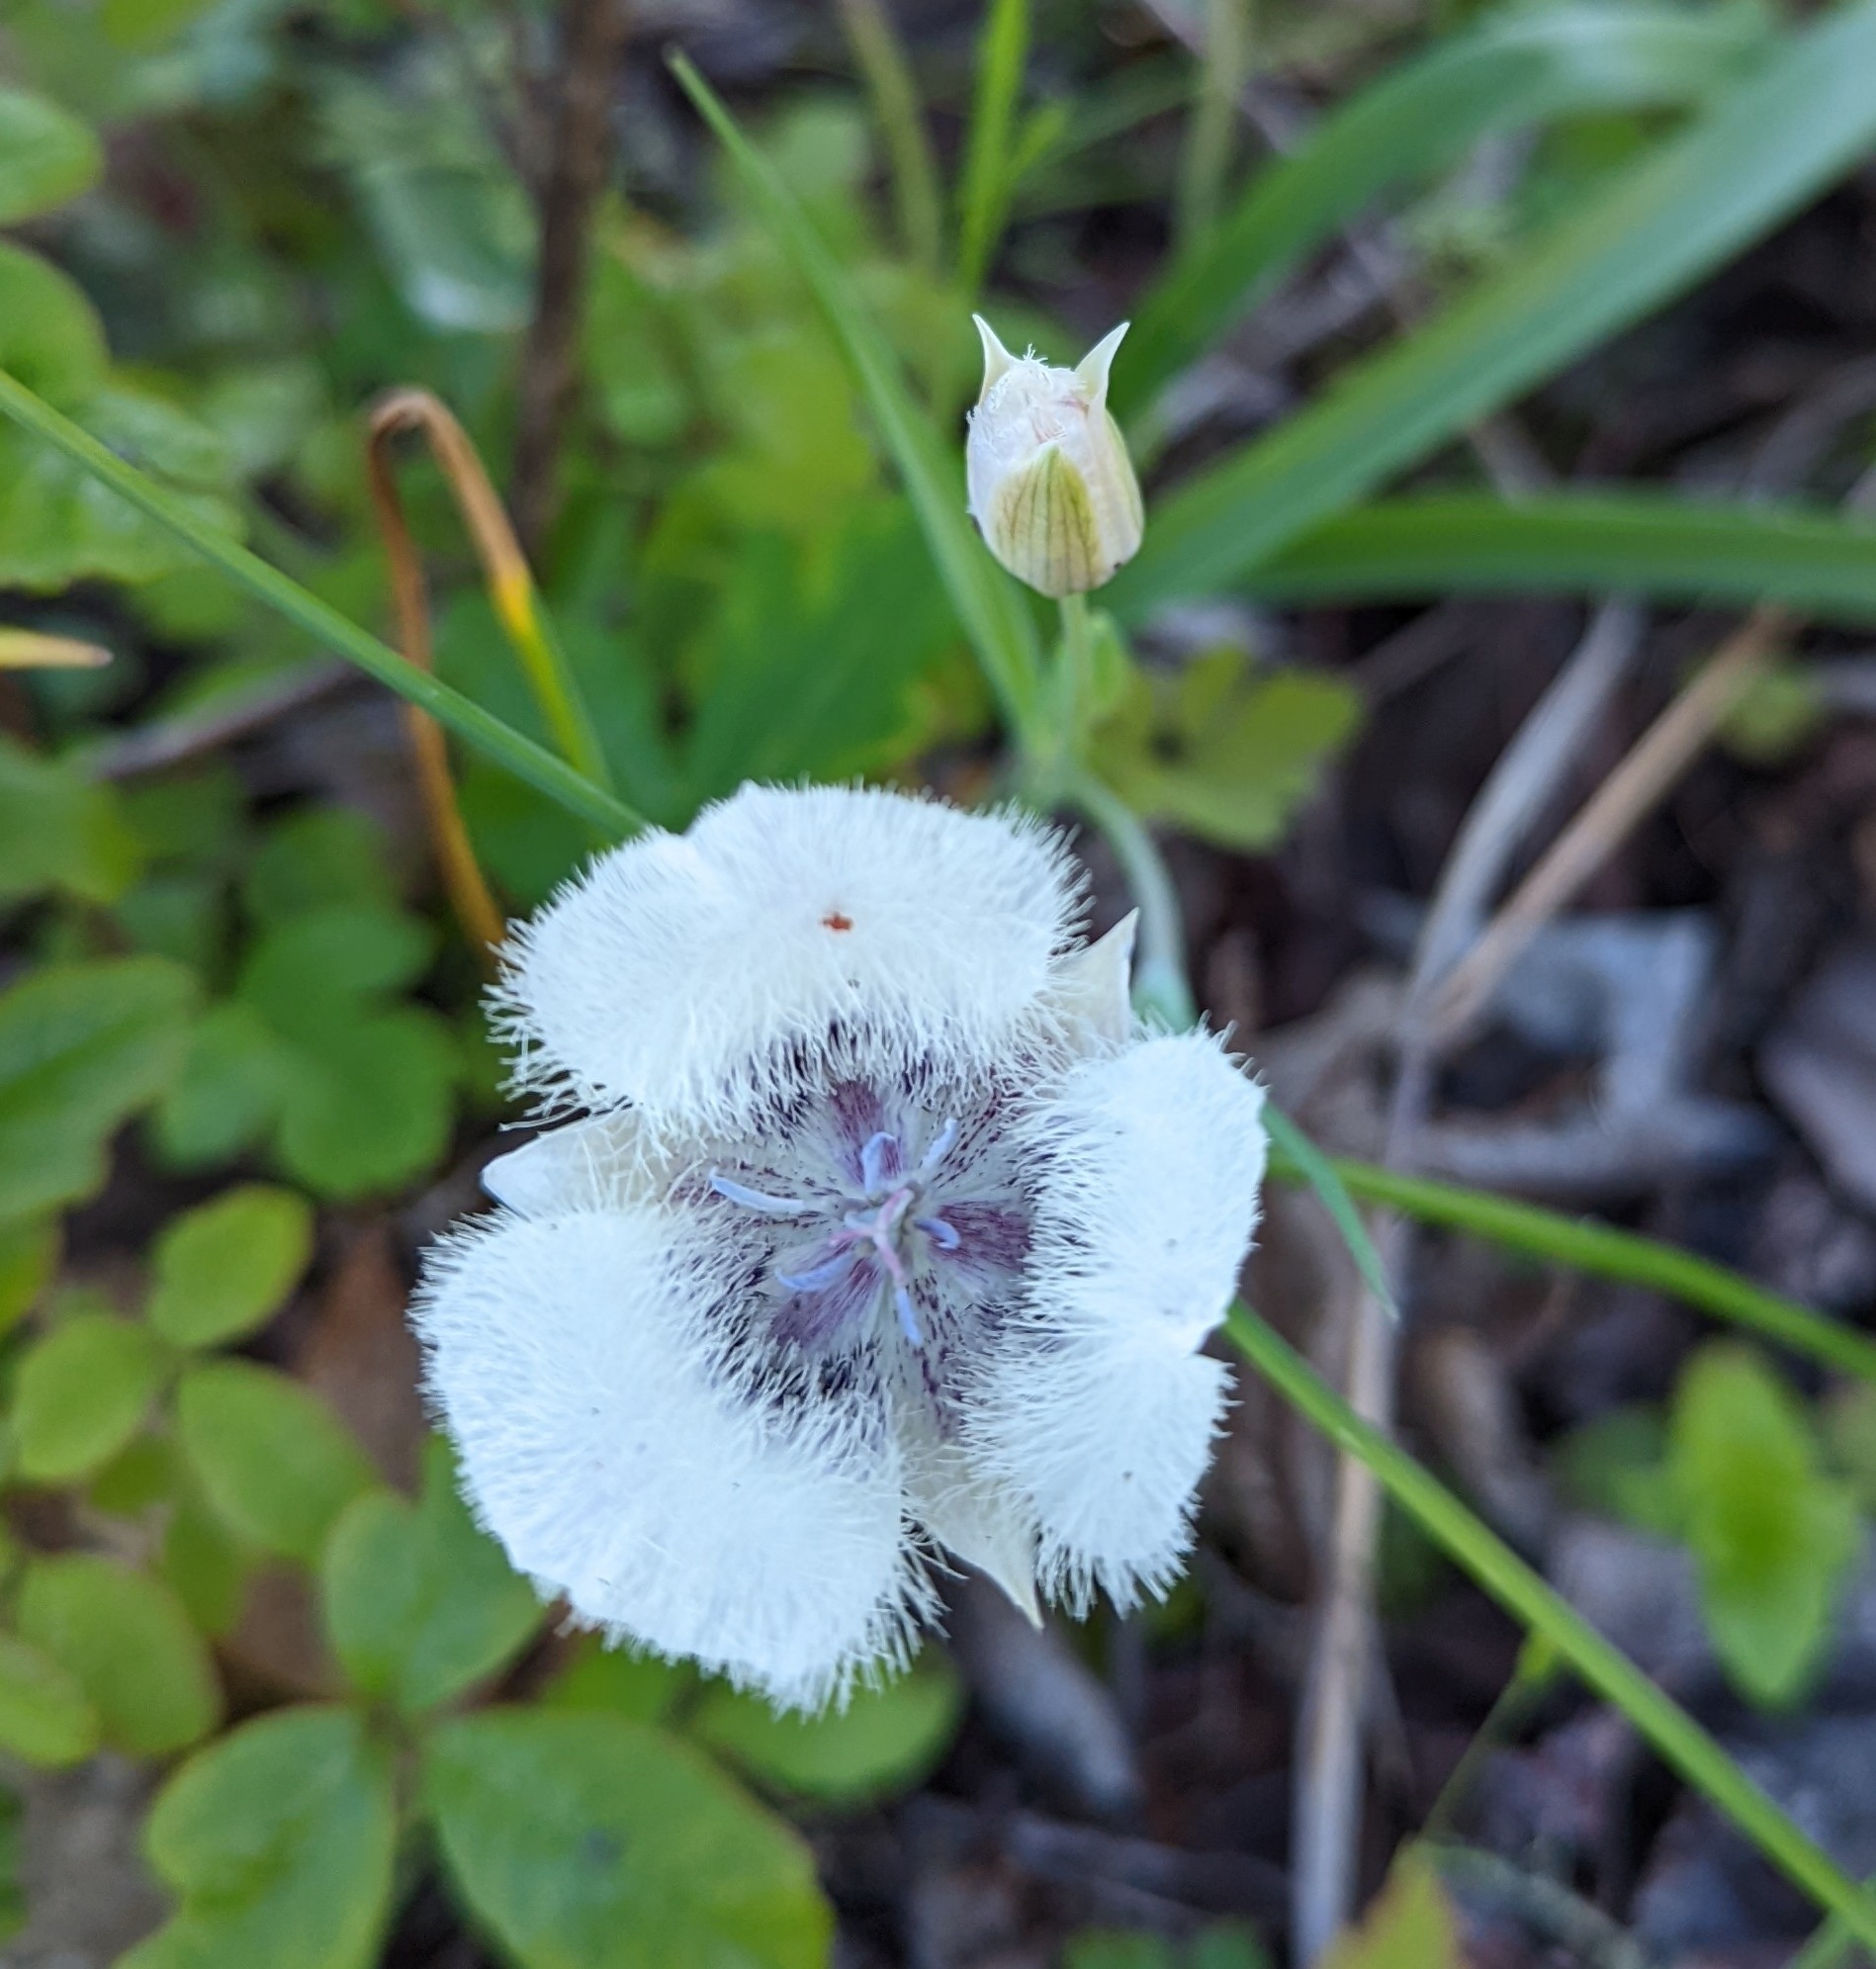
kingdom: Plantae
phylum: Tracheophyta
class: Liliopsida
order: Liliales
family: Liliaceae
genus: Calochortus
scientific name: Calochortus tolmiei
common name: Pussy-ears
